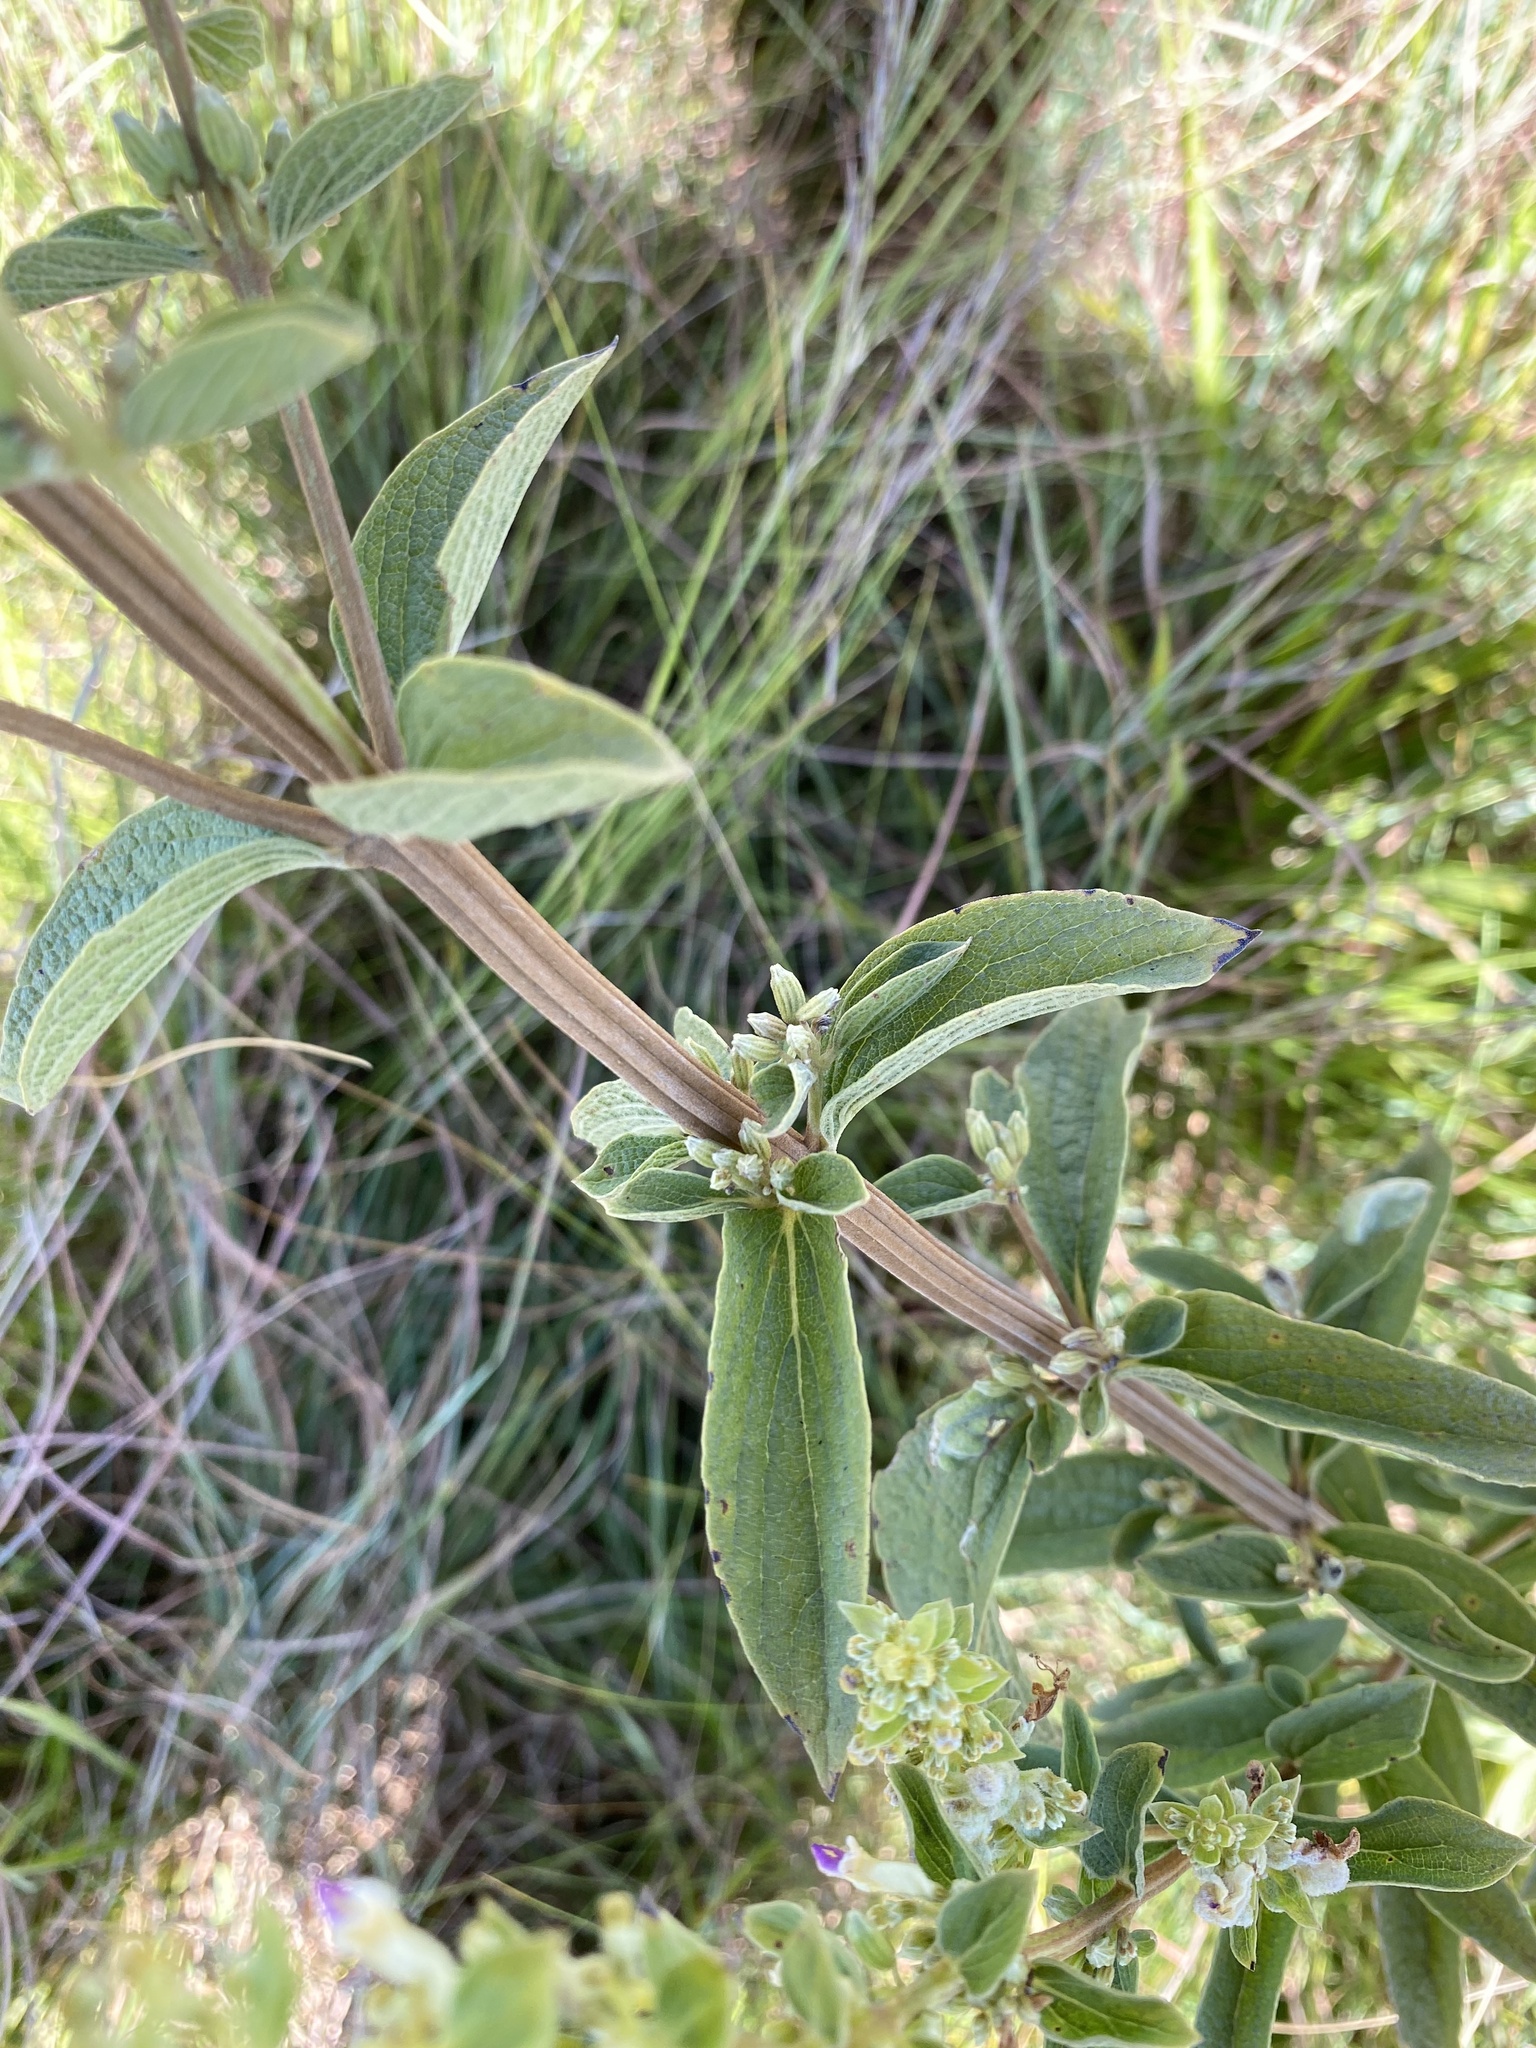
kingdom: Plantae
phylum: Tracheophyta
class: Magnoliopsida
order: Lamiales
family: Lamiaceae
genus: Coleus
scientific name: Coleus calycinus
